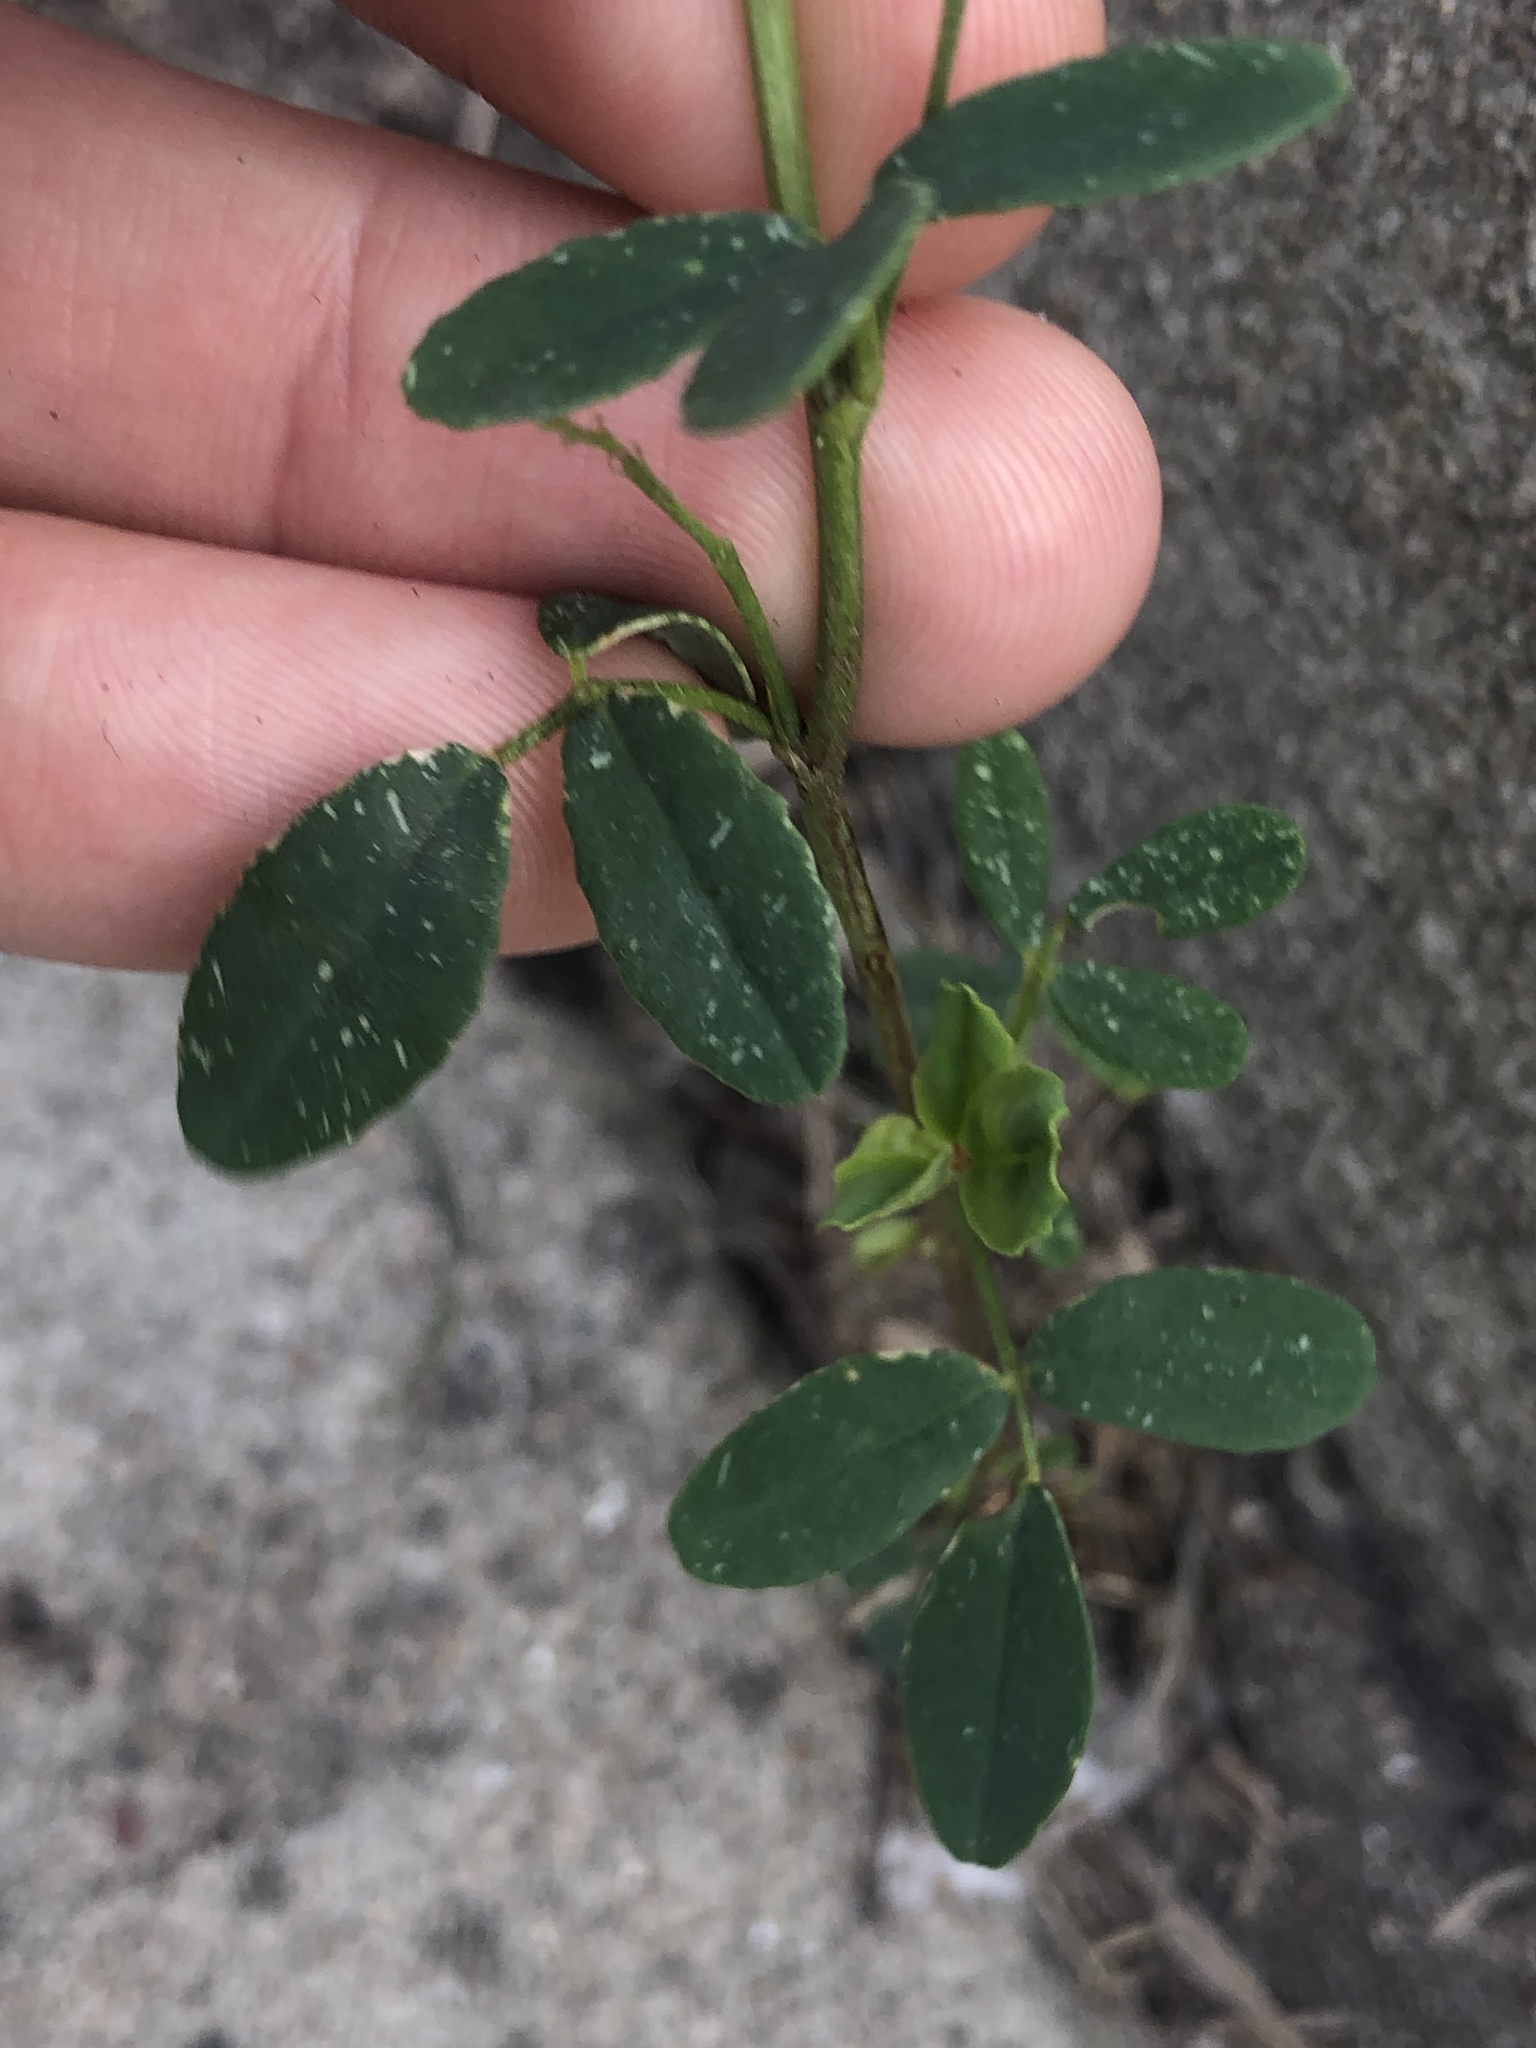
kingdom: Plantae
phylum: Tracheophyta
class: Magnoliopsida
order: Fabales
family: Fabaceae
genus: Melilotus
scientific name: Melilotus albus
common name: White melilot
